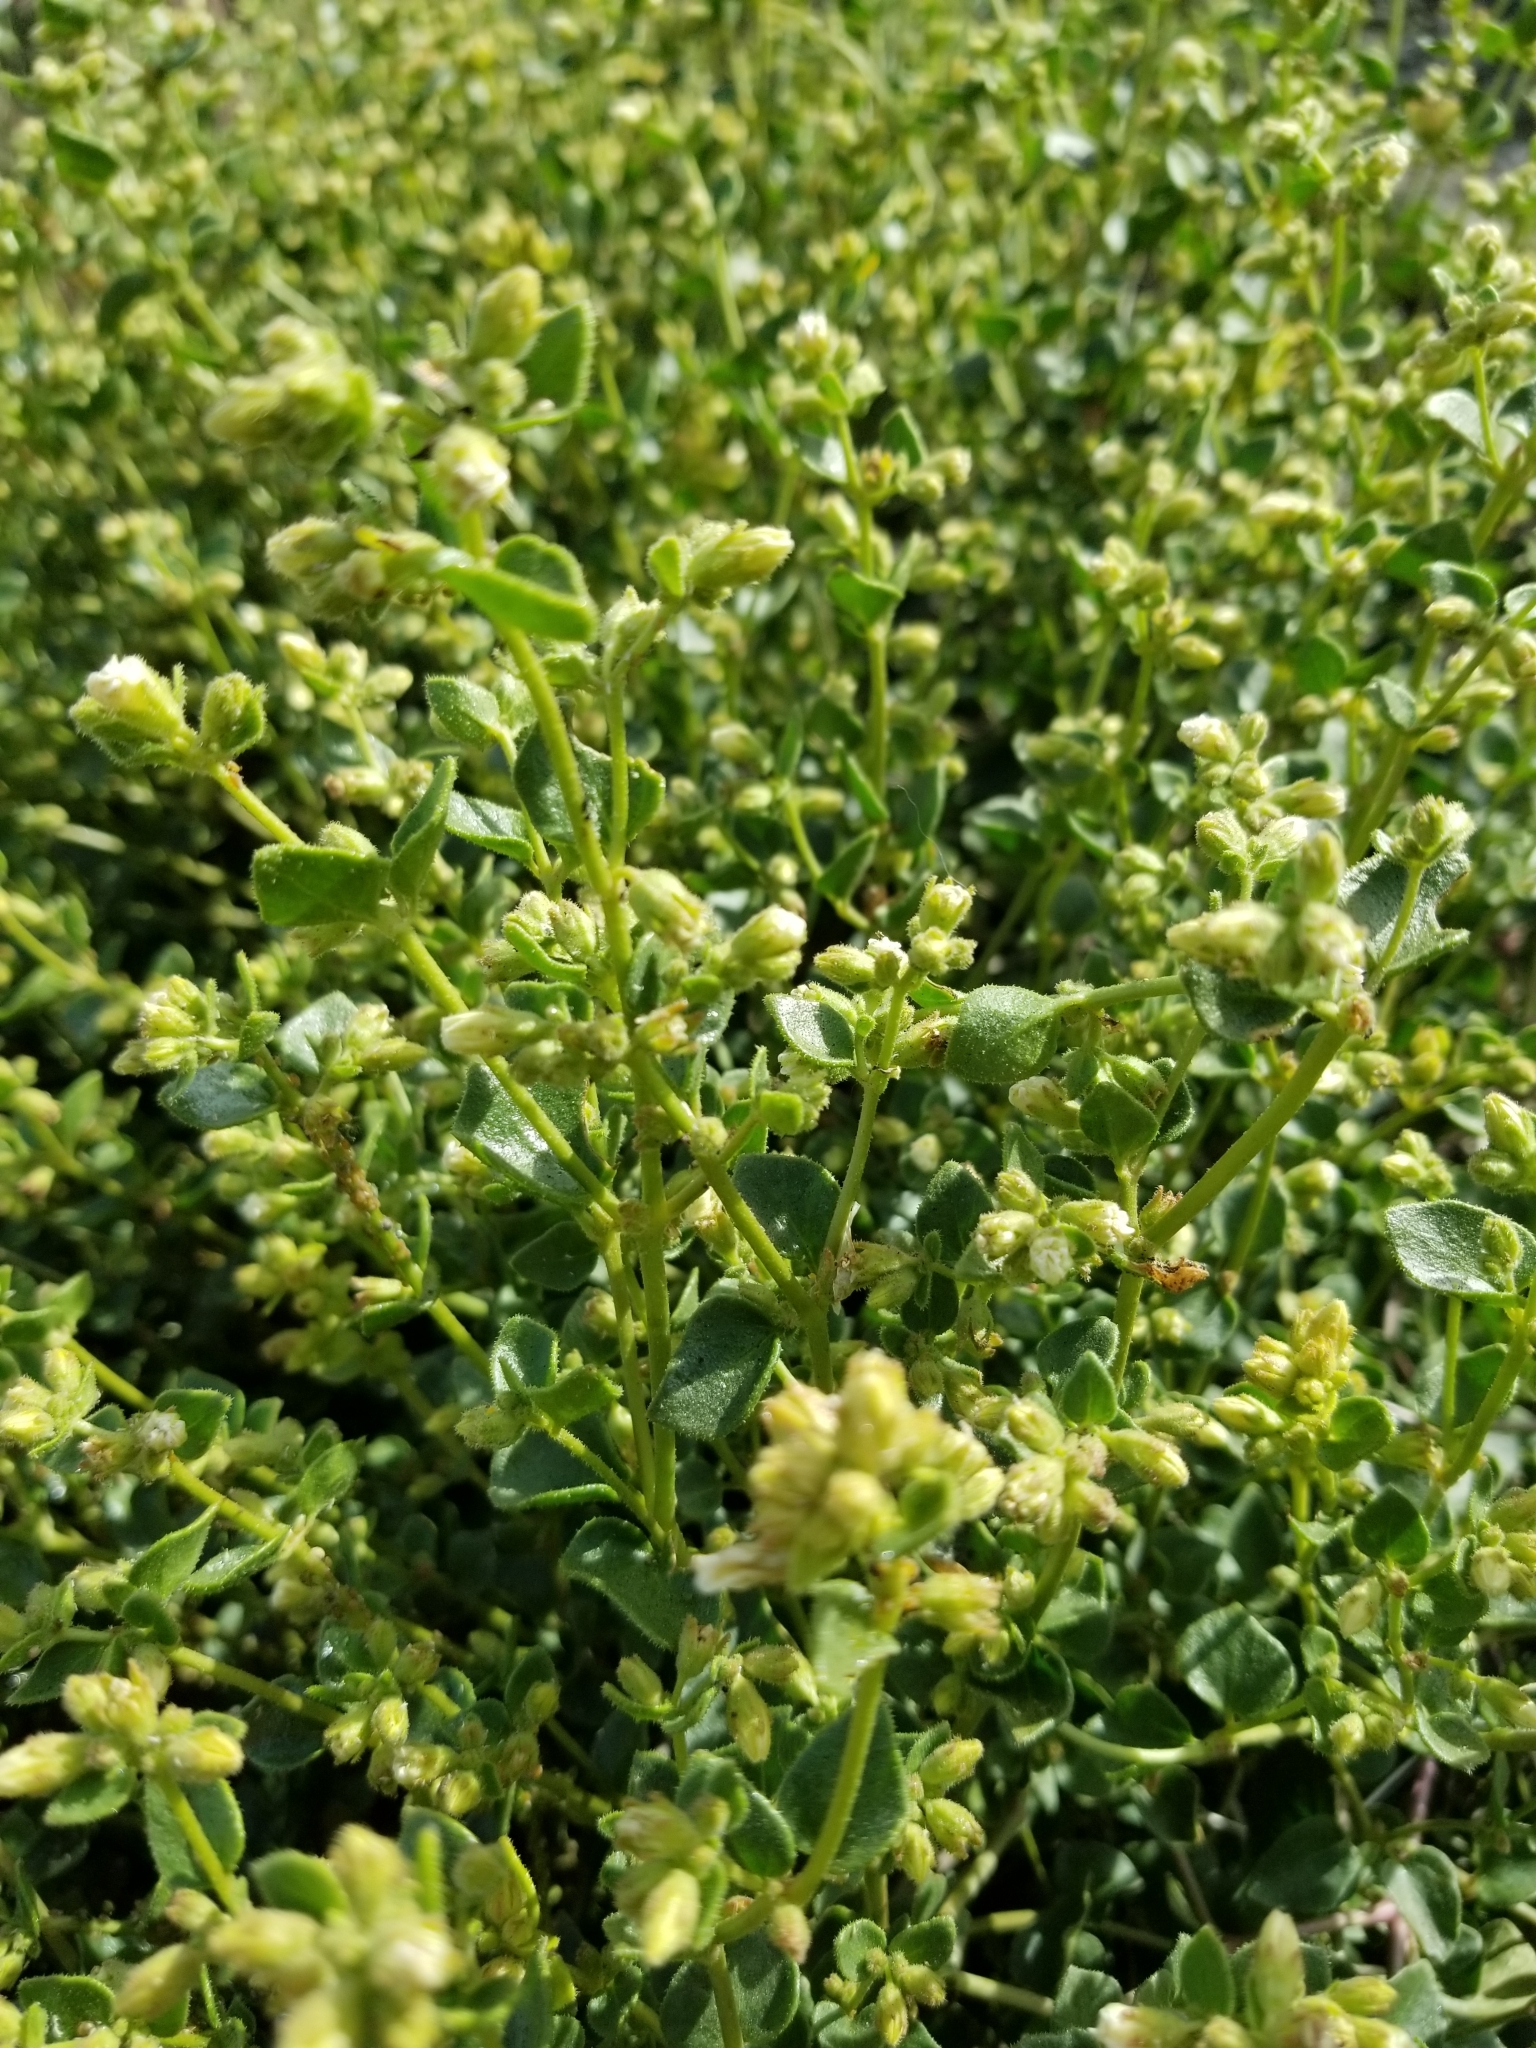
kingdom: Plantae
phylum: Tracheophyta
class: Magnoliopsida
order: Caryophyllales
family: Nyctaginaceae
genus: Mirabilis
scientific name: Mirabilis laevis
